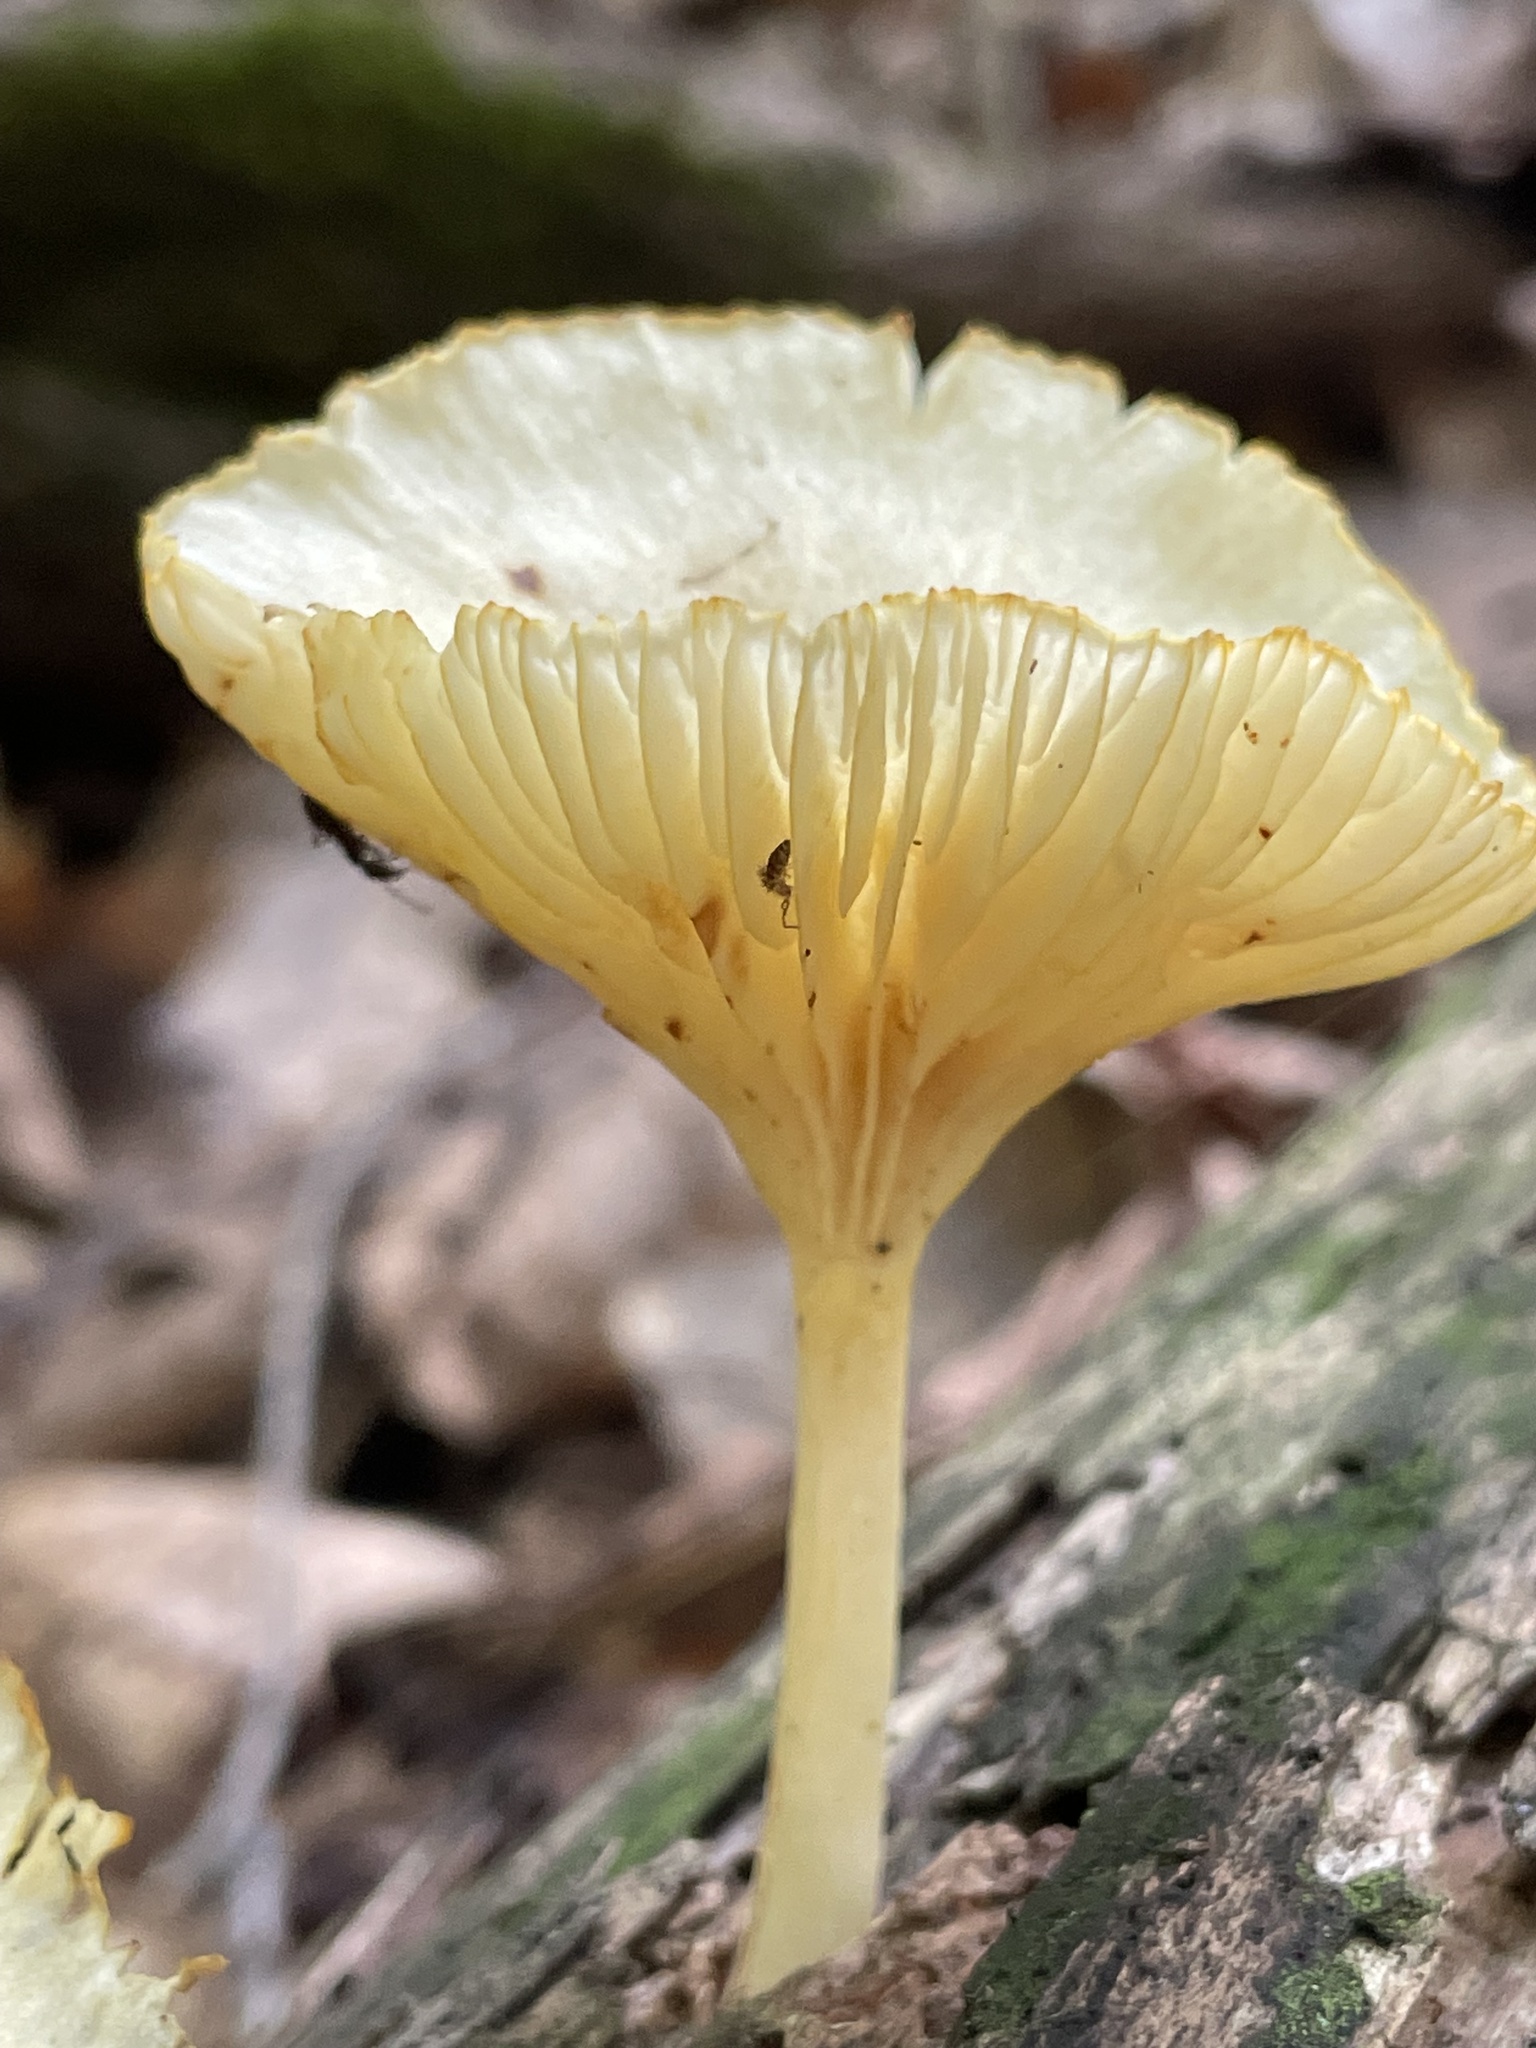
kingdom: Fungi
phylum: Basidiomycota
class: Agaricomycetes
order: Agaricales
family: Marasmiaceae
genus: Gerronema
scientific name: Gerronema strombodes
